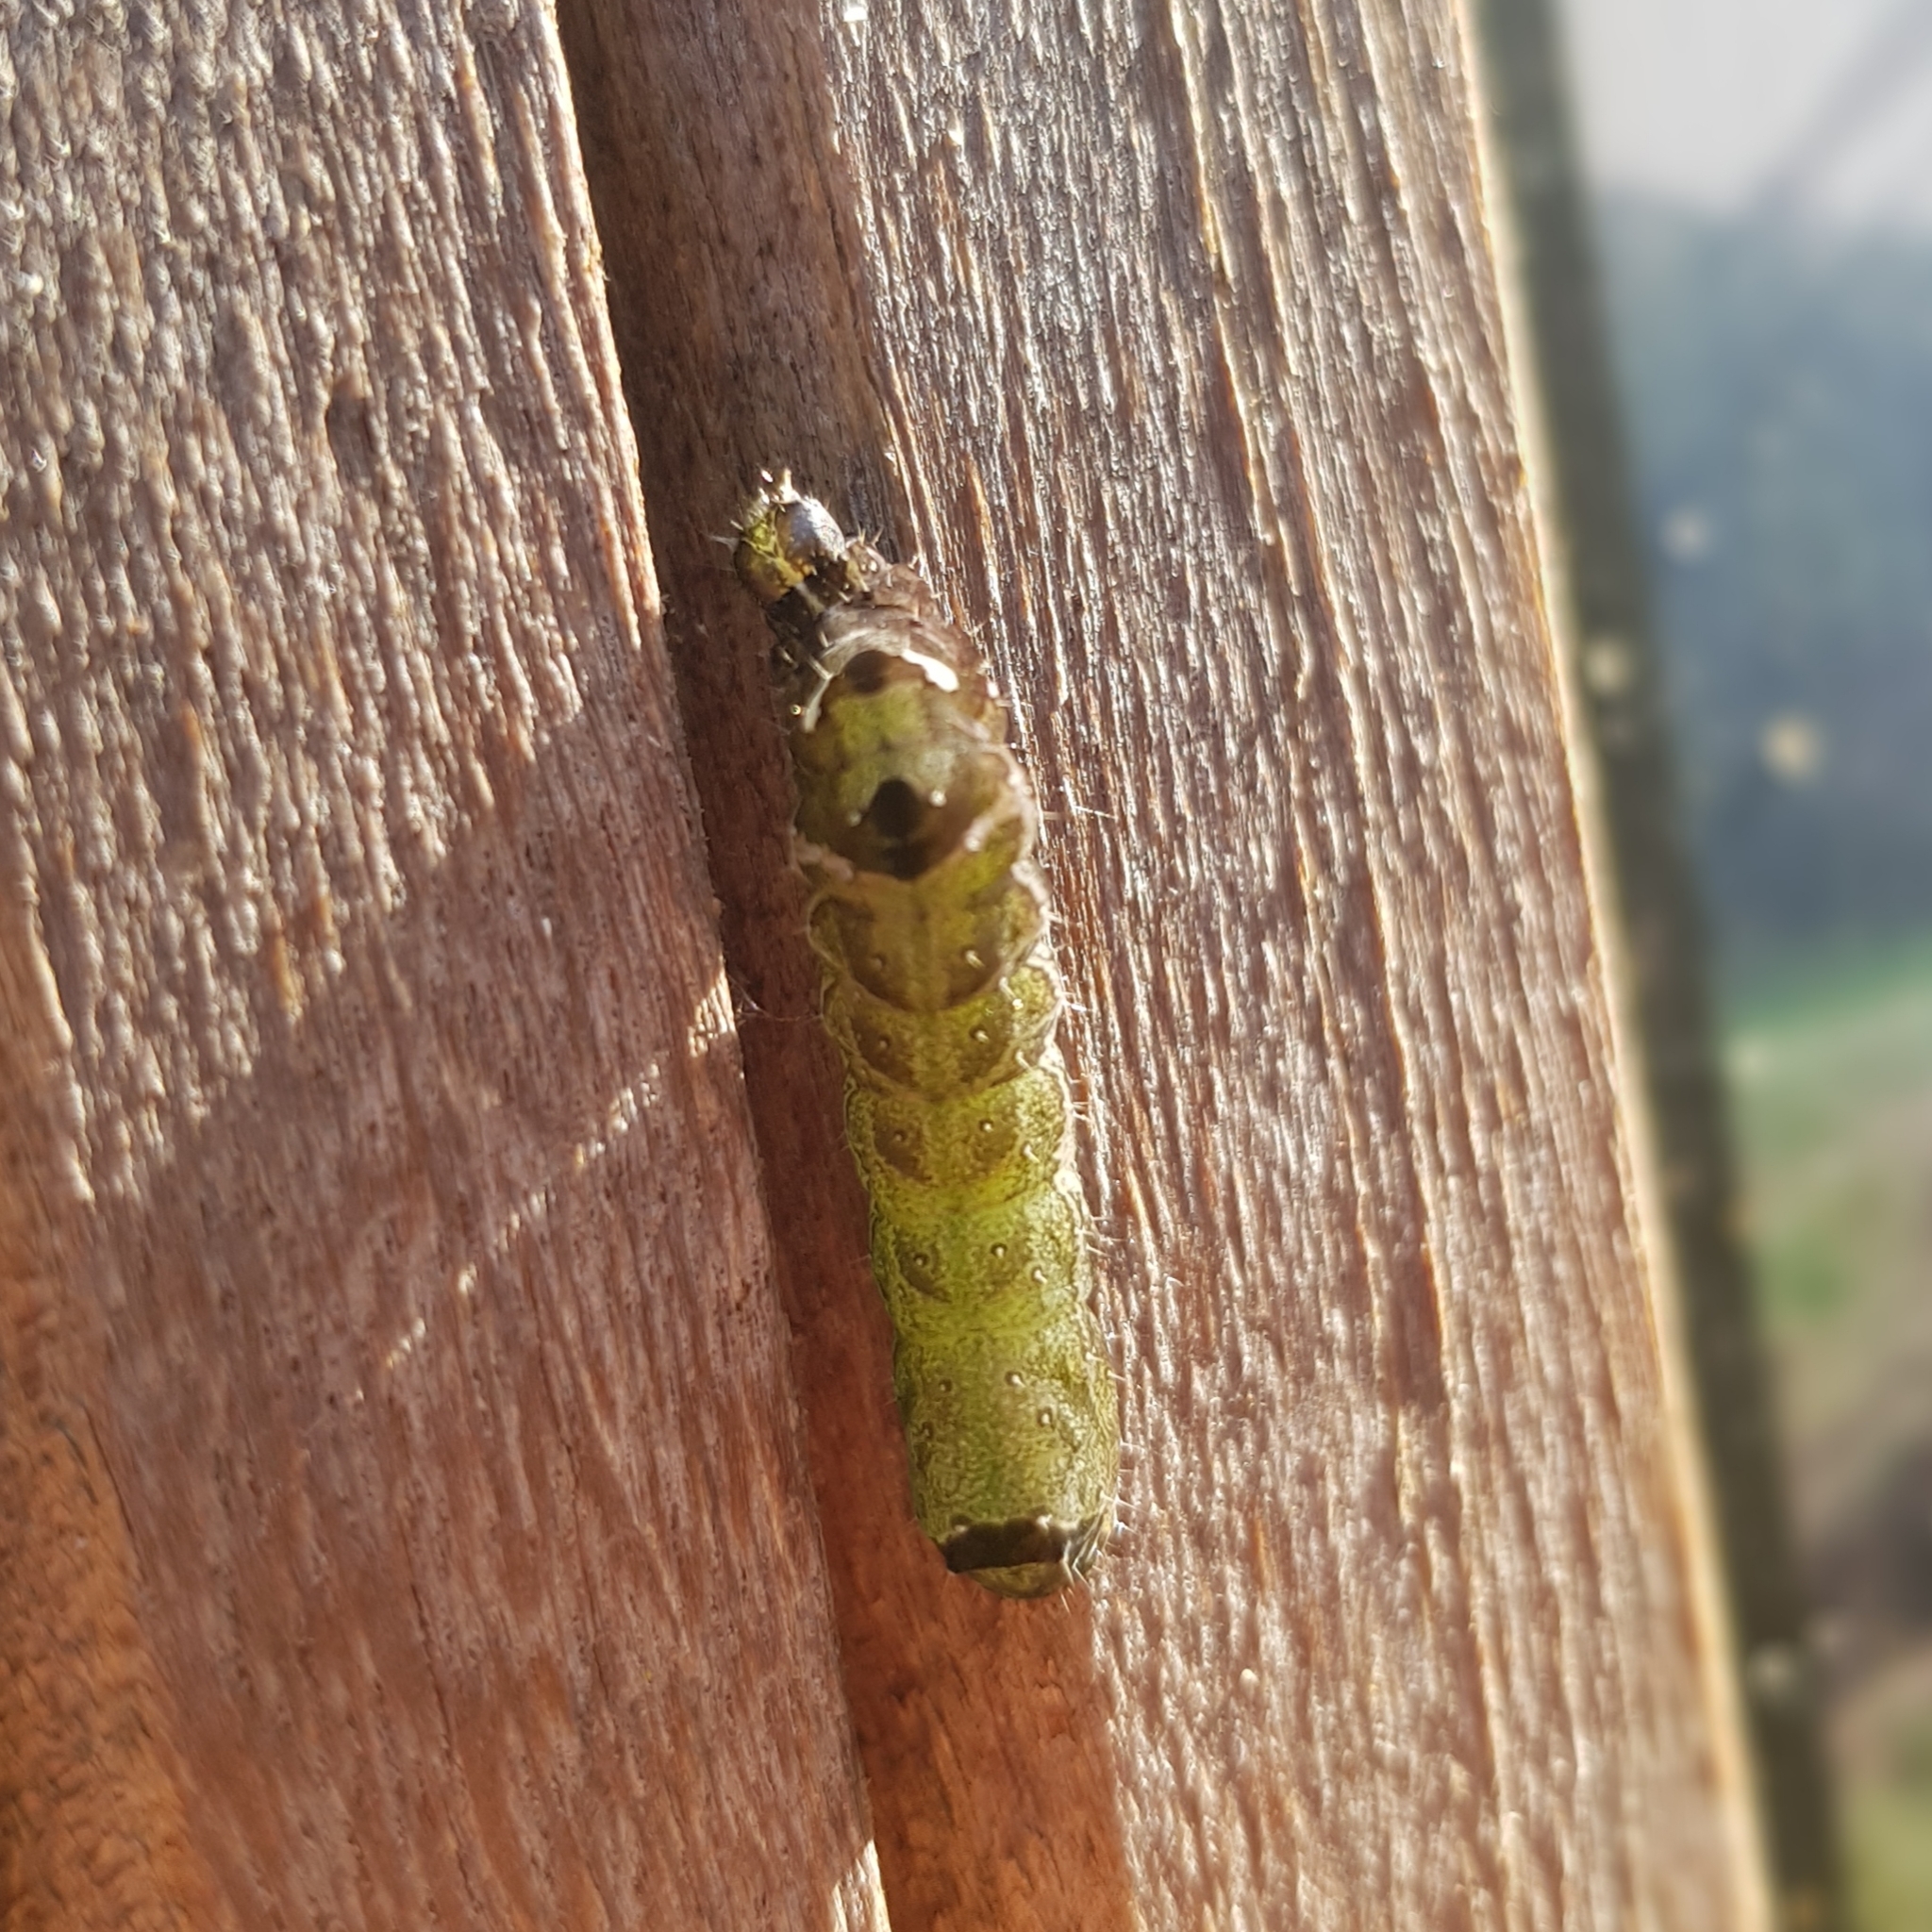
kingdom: Animalia
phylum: Arthropoda
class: Insecta
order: Lepidoptera
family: Noctuidae
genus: Abrostola
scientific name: Abrostola triplasia
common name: Dark spectacle
